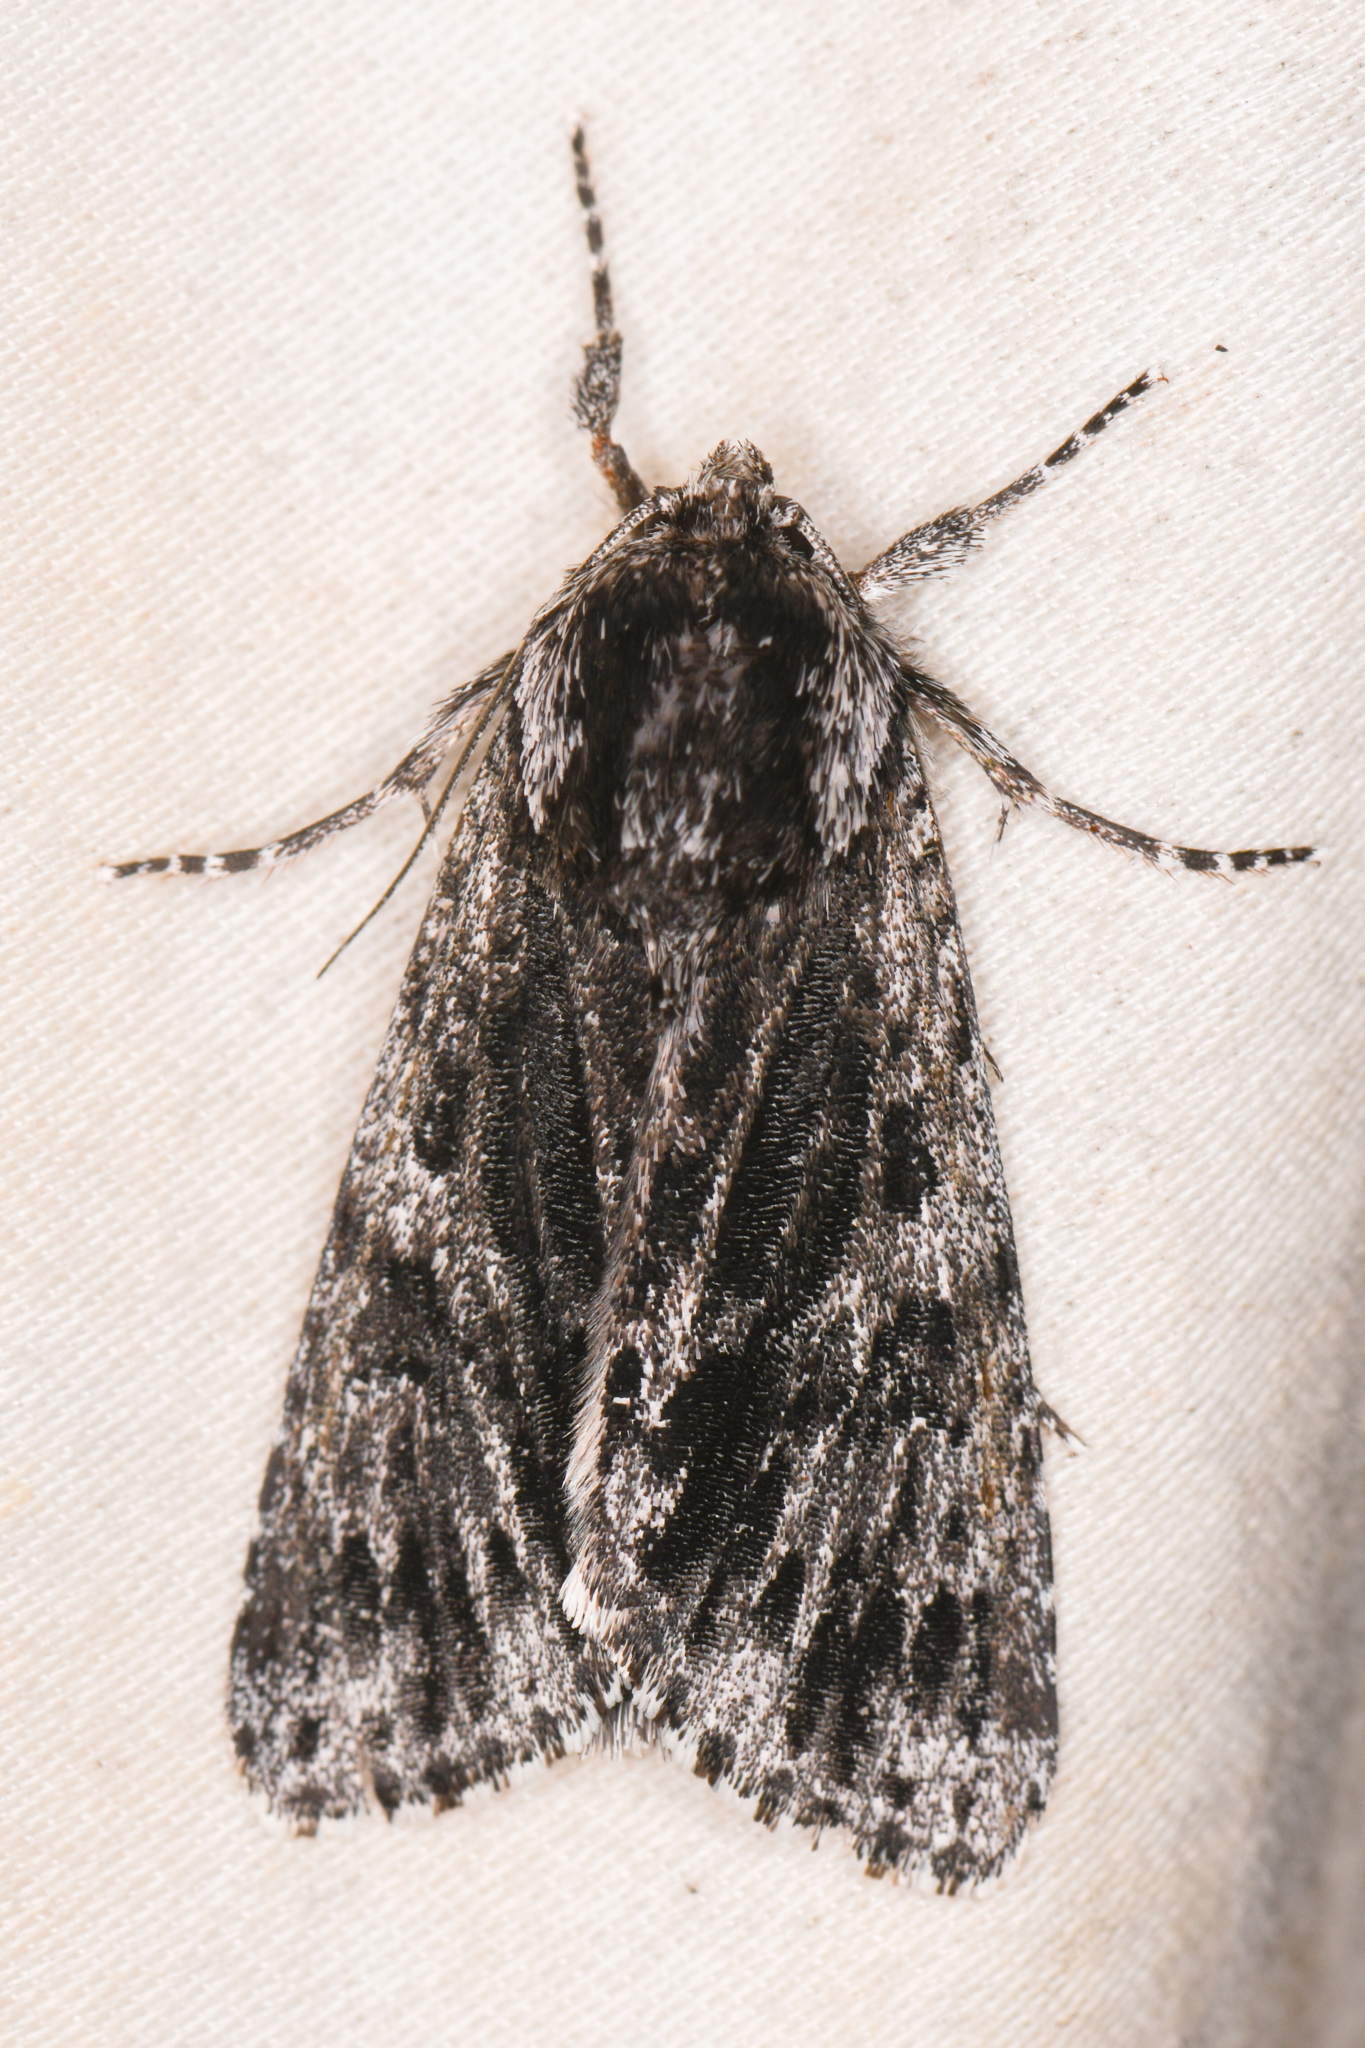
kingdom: Animalia
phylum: Arthropoda
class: Insecta
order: Lepidoptera
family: Noctuidae
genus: Acronicta
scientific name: Acronicta perdita
